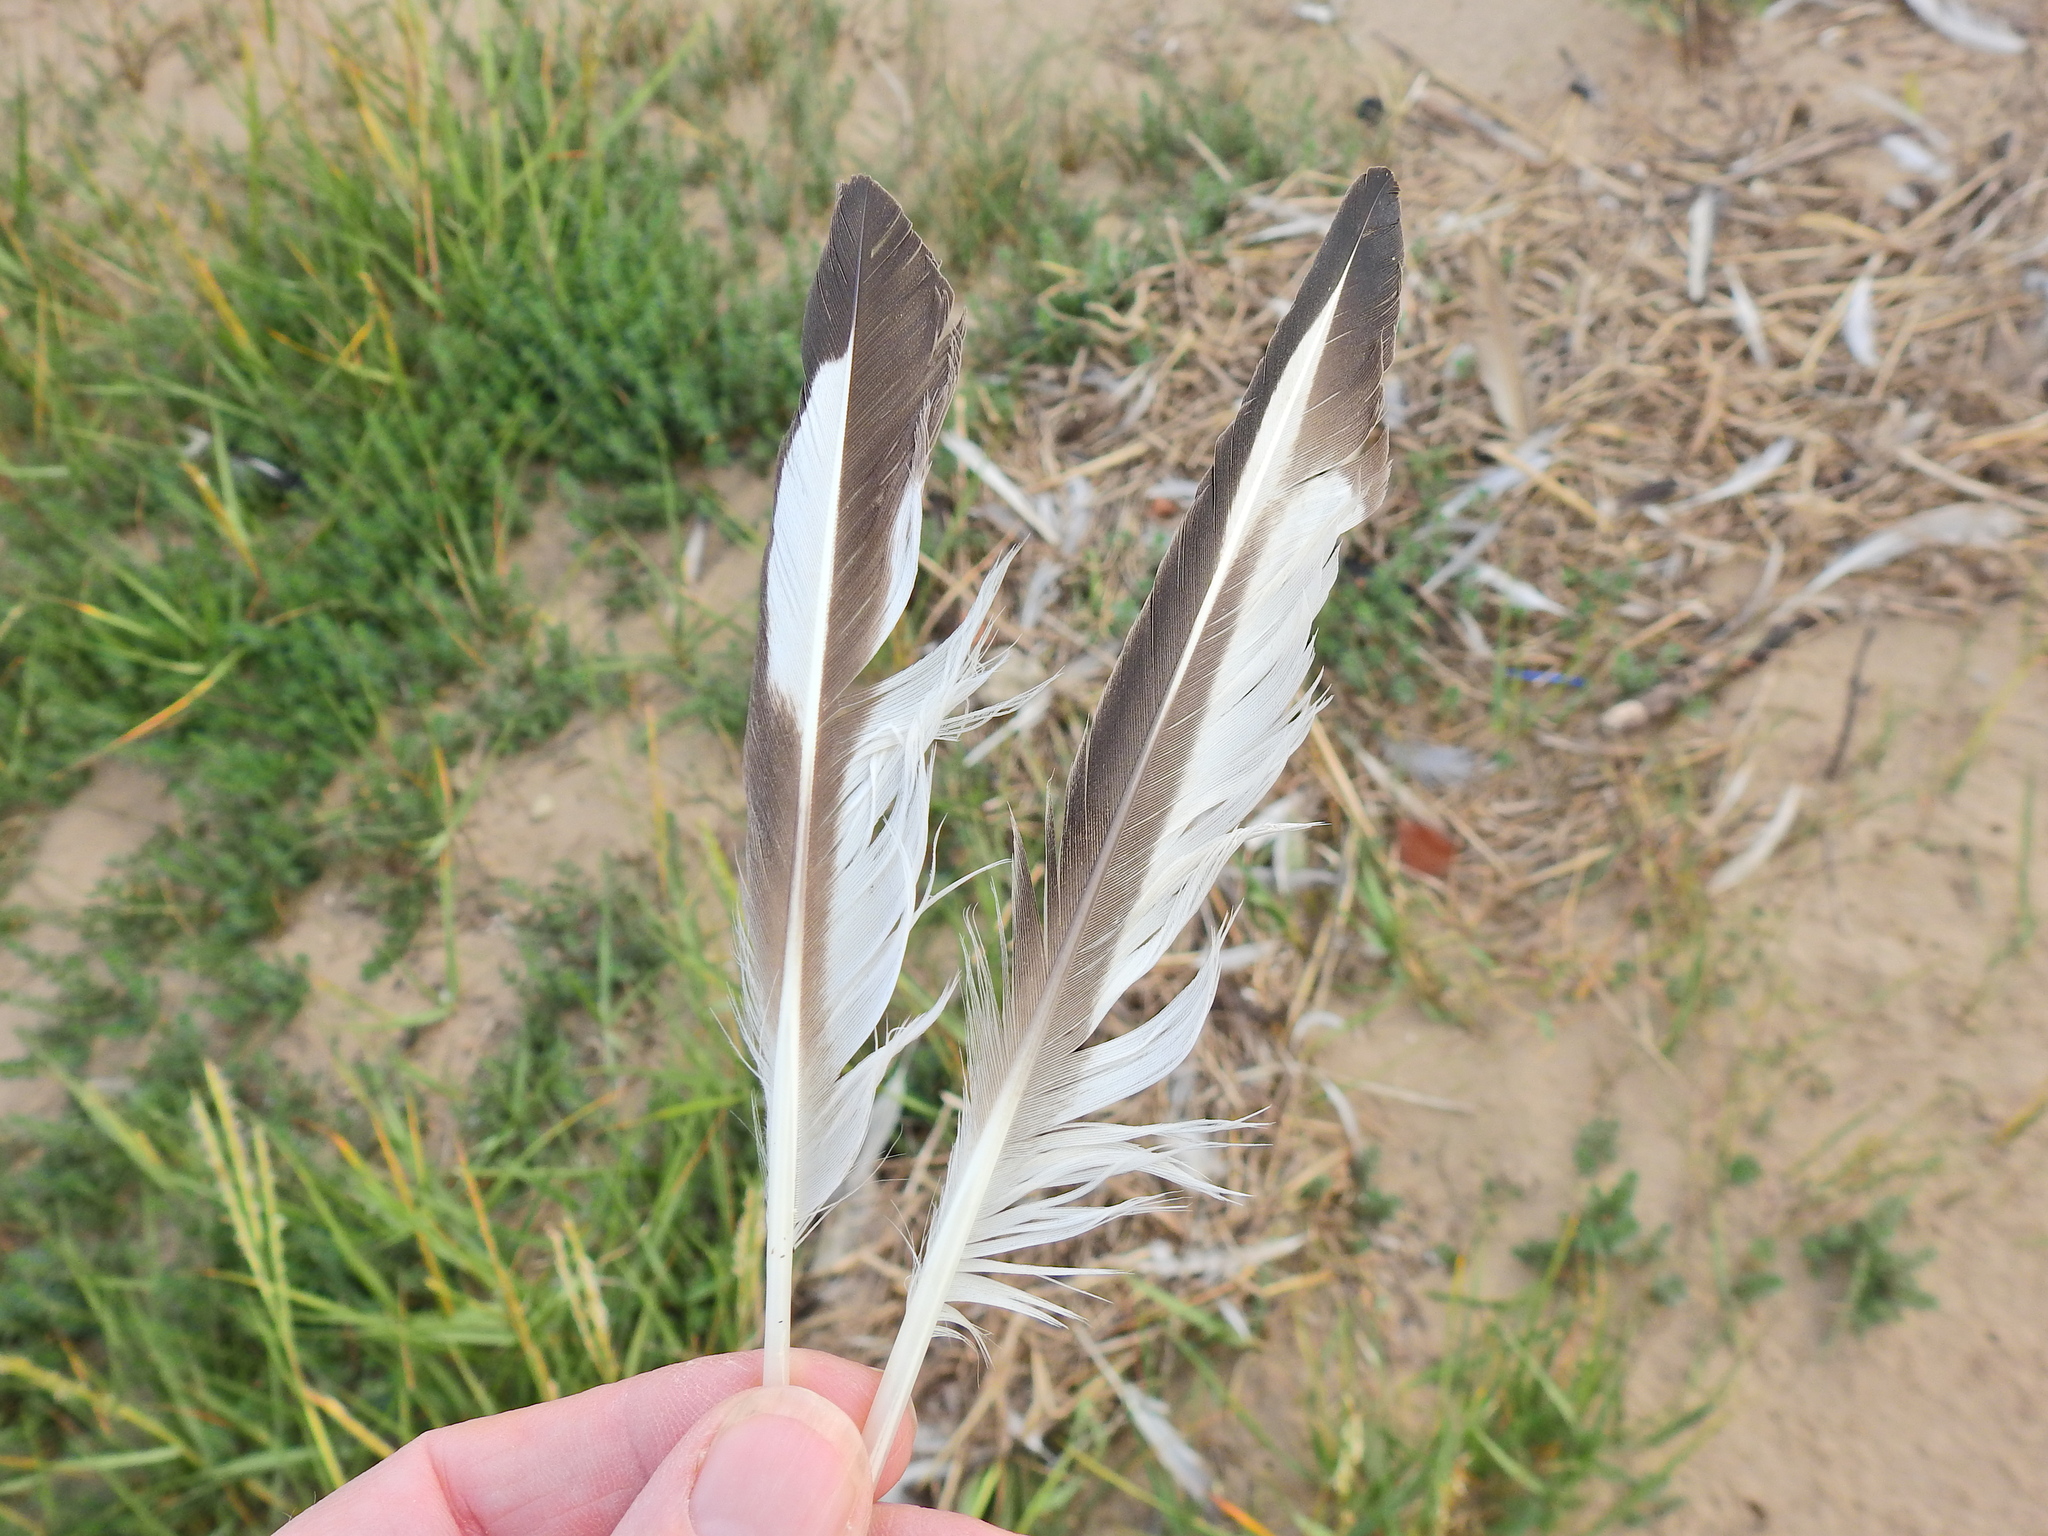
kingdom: Animalia
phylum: Chordata
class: Aves
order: Charadriiformes
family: Haematopodidae
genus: Haematopus
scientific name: Haematopus ostralegus
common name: Eurasian oystercatcher
